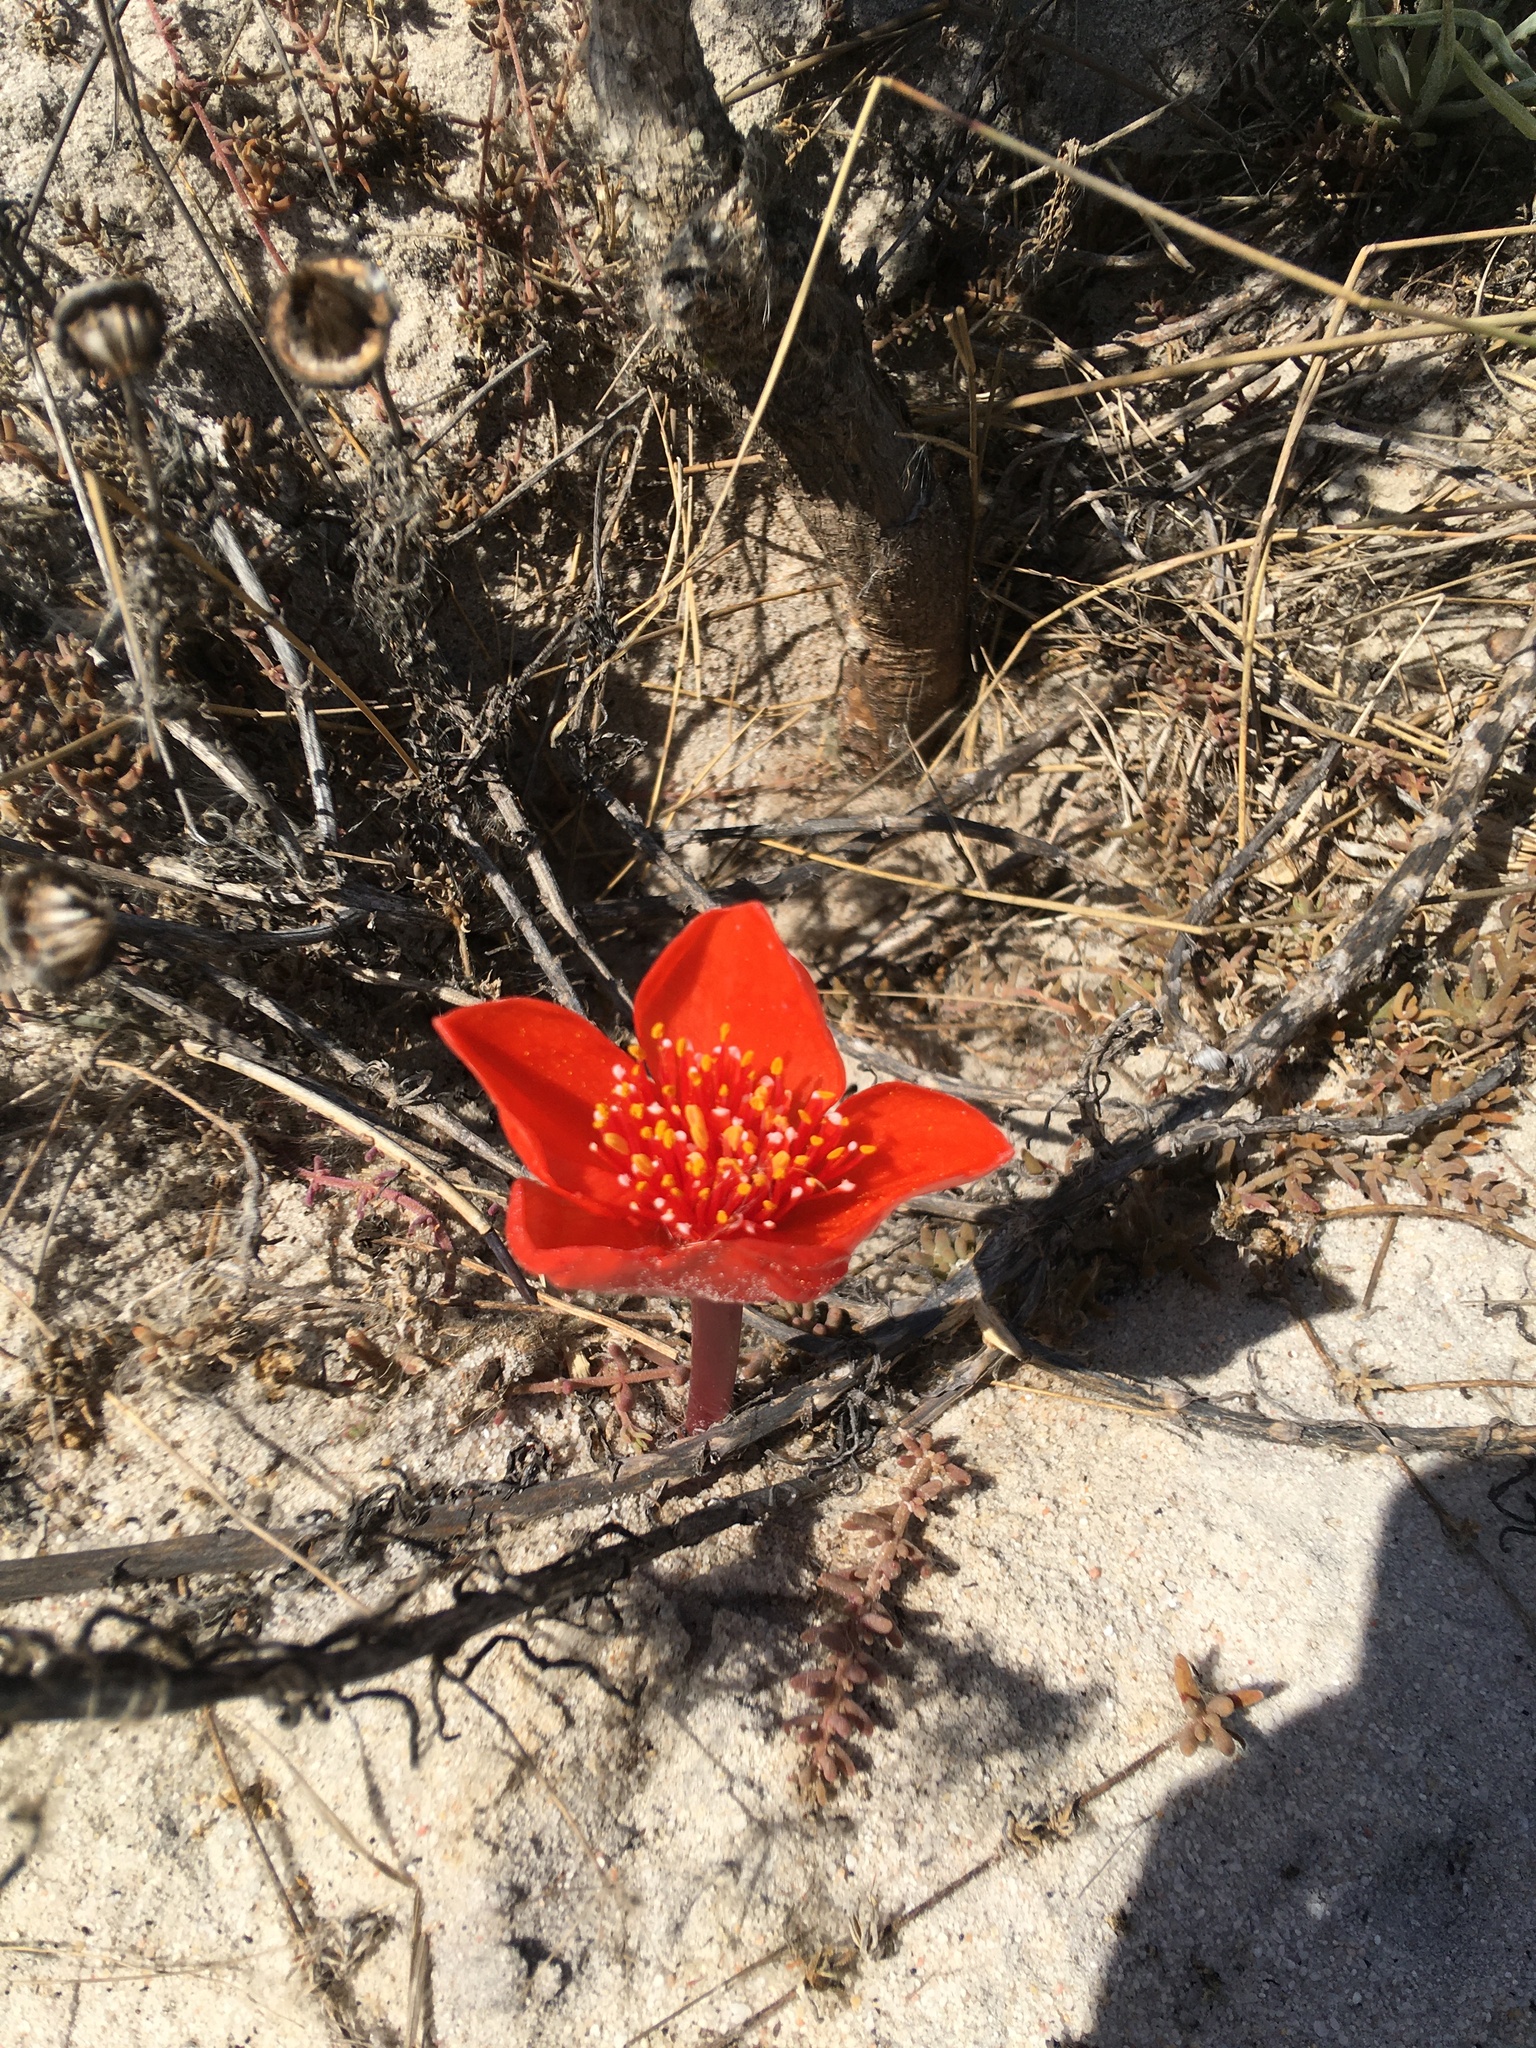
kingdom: Plantae
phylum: Tracheophyta
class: Liliopsida
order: Asparagales
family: Amaryllidaceae
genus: Haemanthus
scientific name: Haemanthus pubescens
